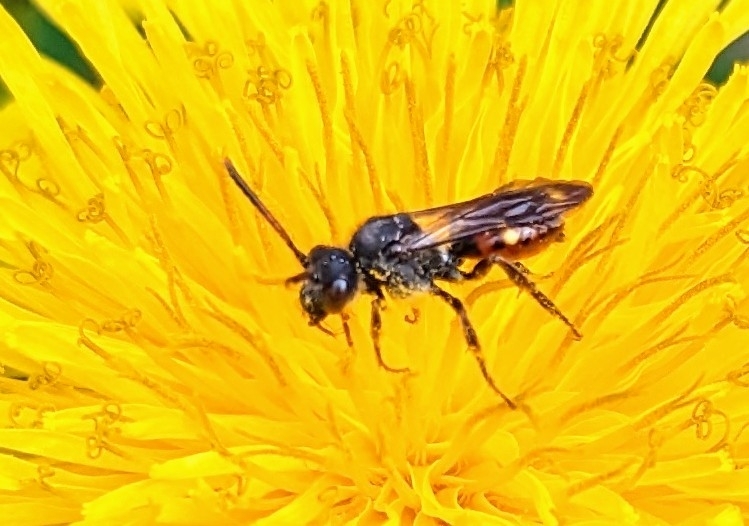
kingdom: Animalia
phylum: Arthropoda
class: Insecta
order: Hymenoptera
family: Apidae
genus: Nomada
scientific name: Nomada fabriciana
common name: Fabricius' nomad bee
